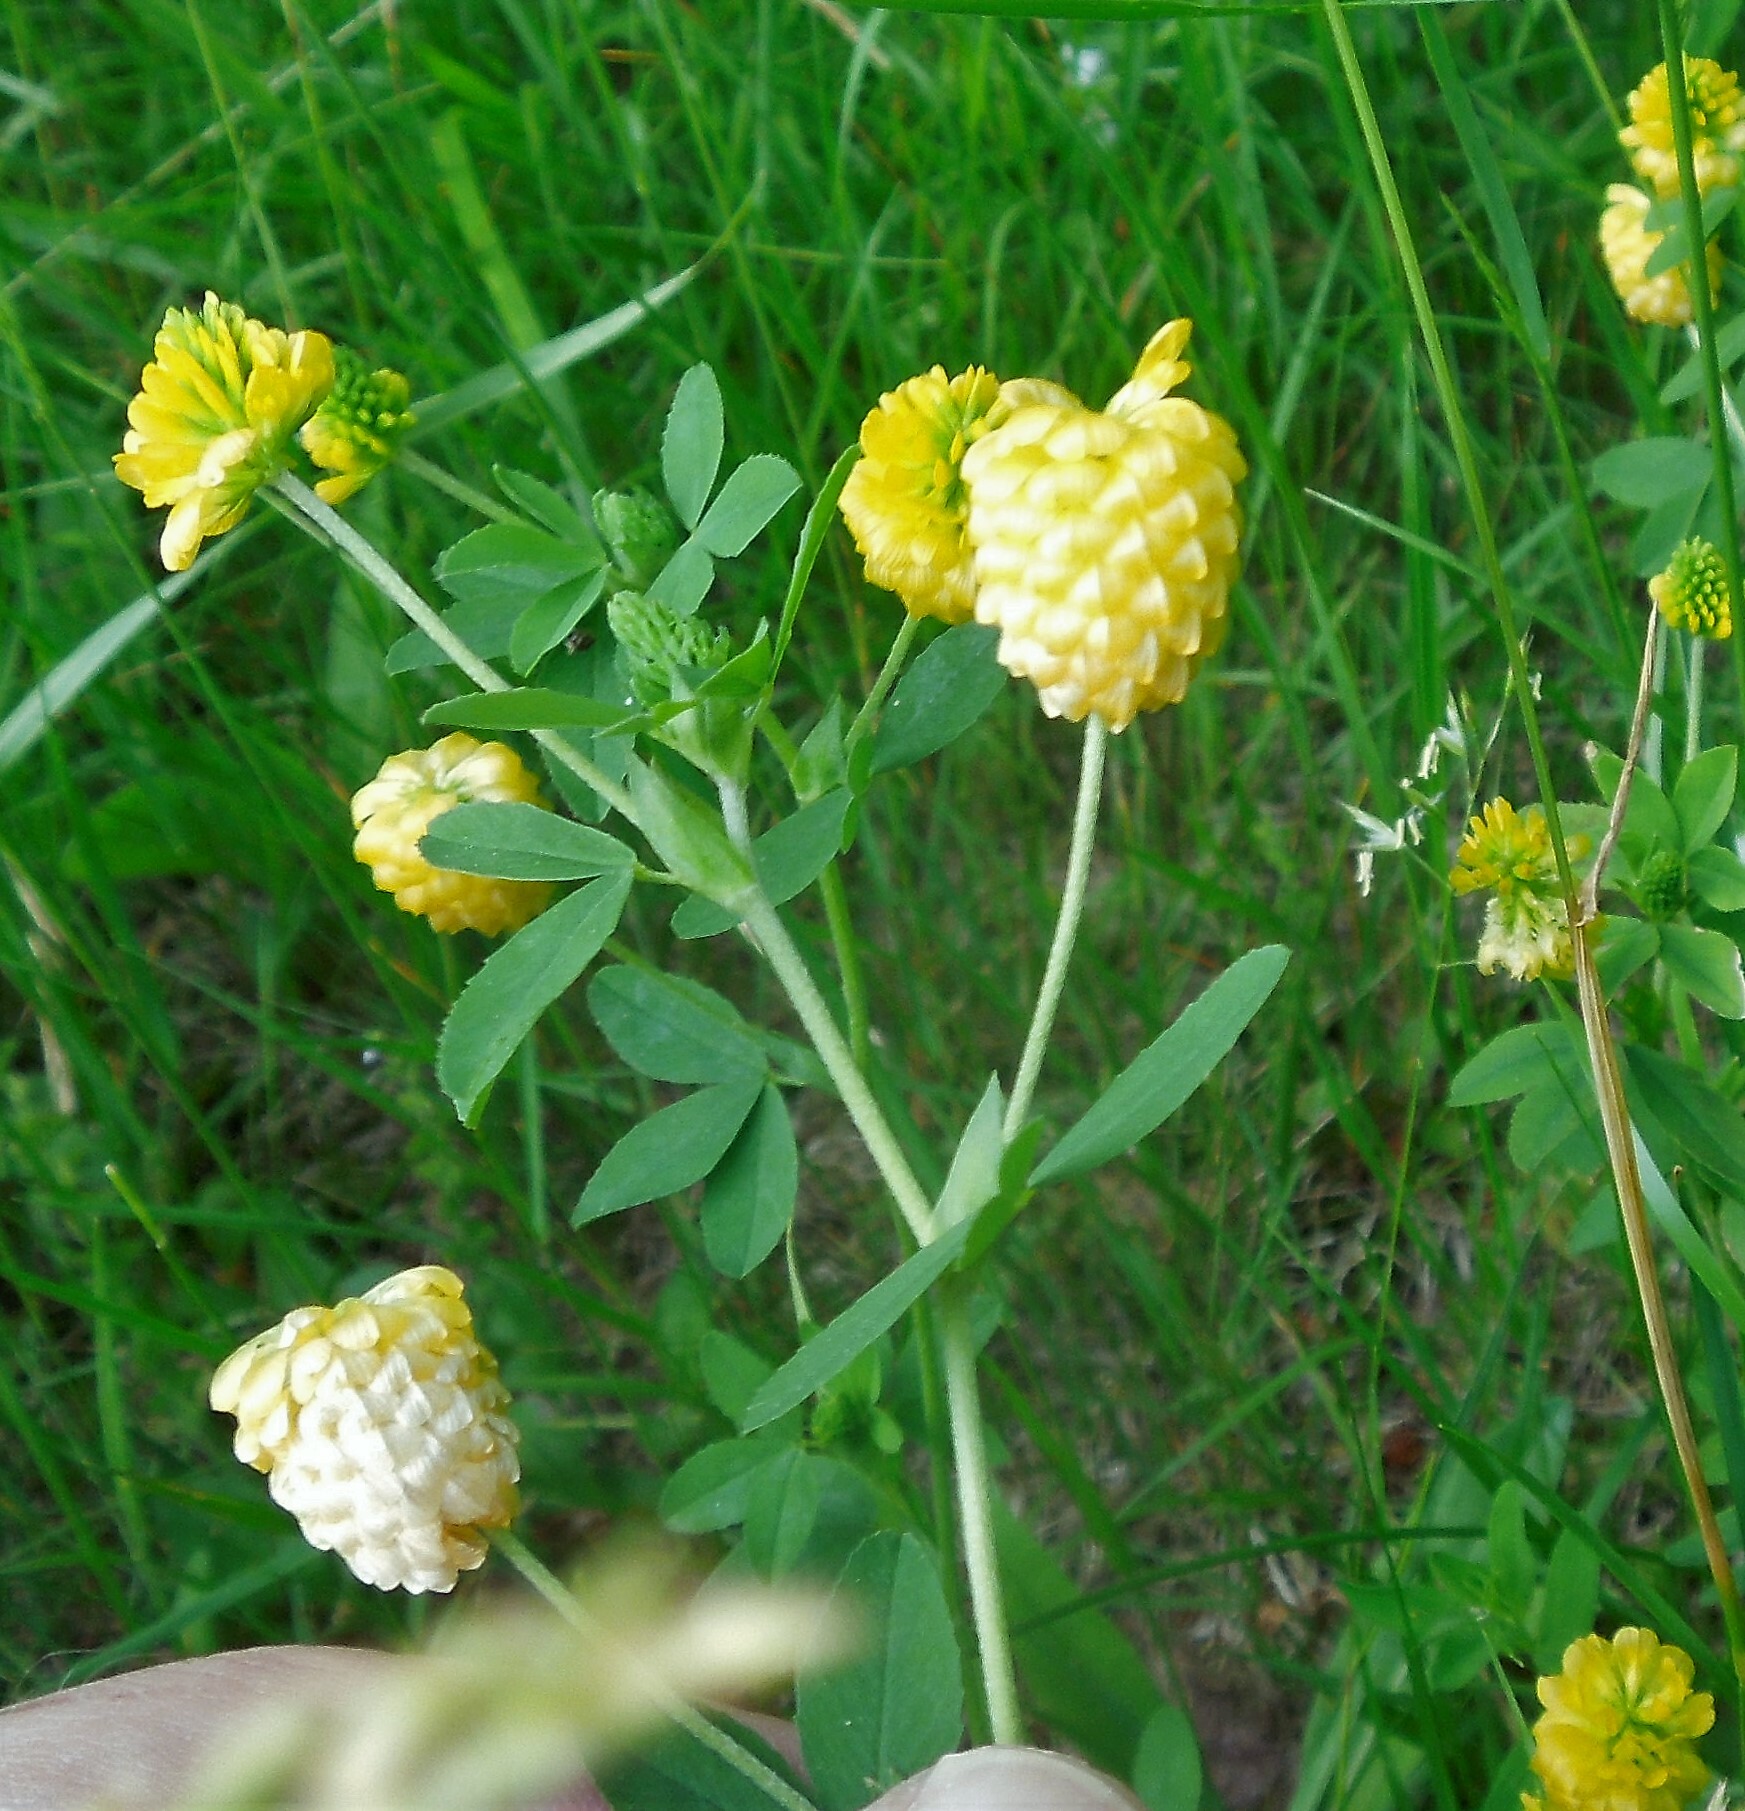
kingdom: Plantae
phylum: Tracheophyta
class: Magnoliopsida
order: Fabales
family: Fabaceae
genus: Trifolium
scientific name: Trifolium aureum
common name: Golden clover
